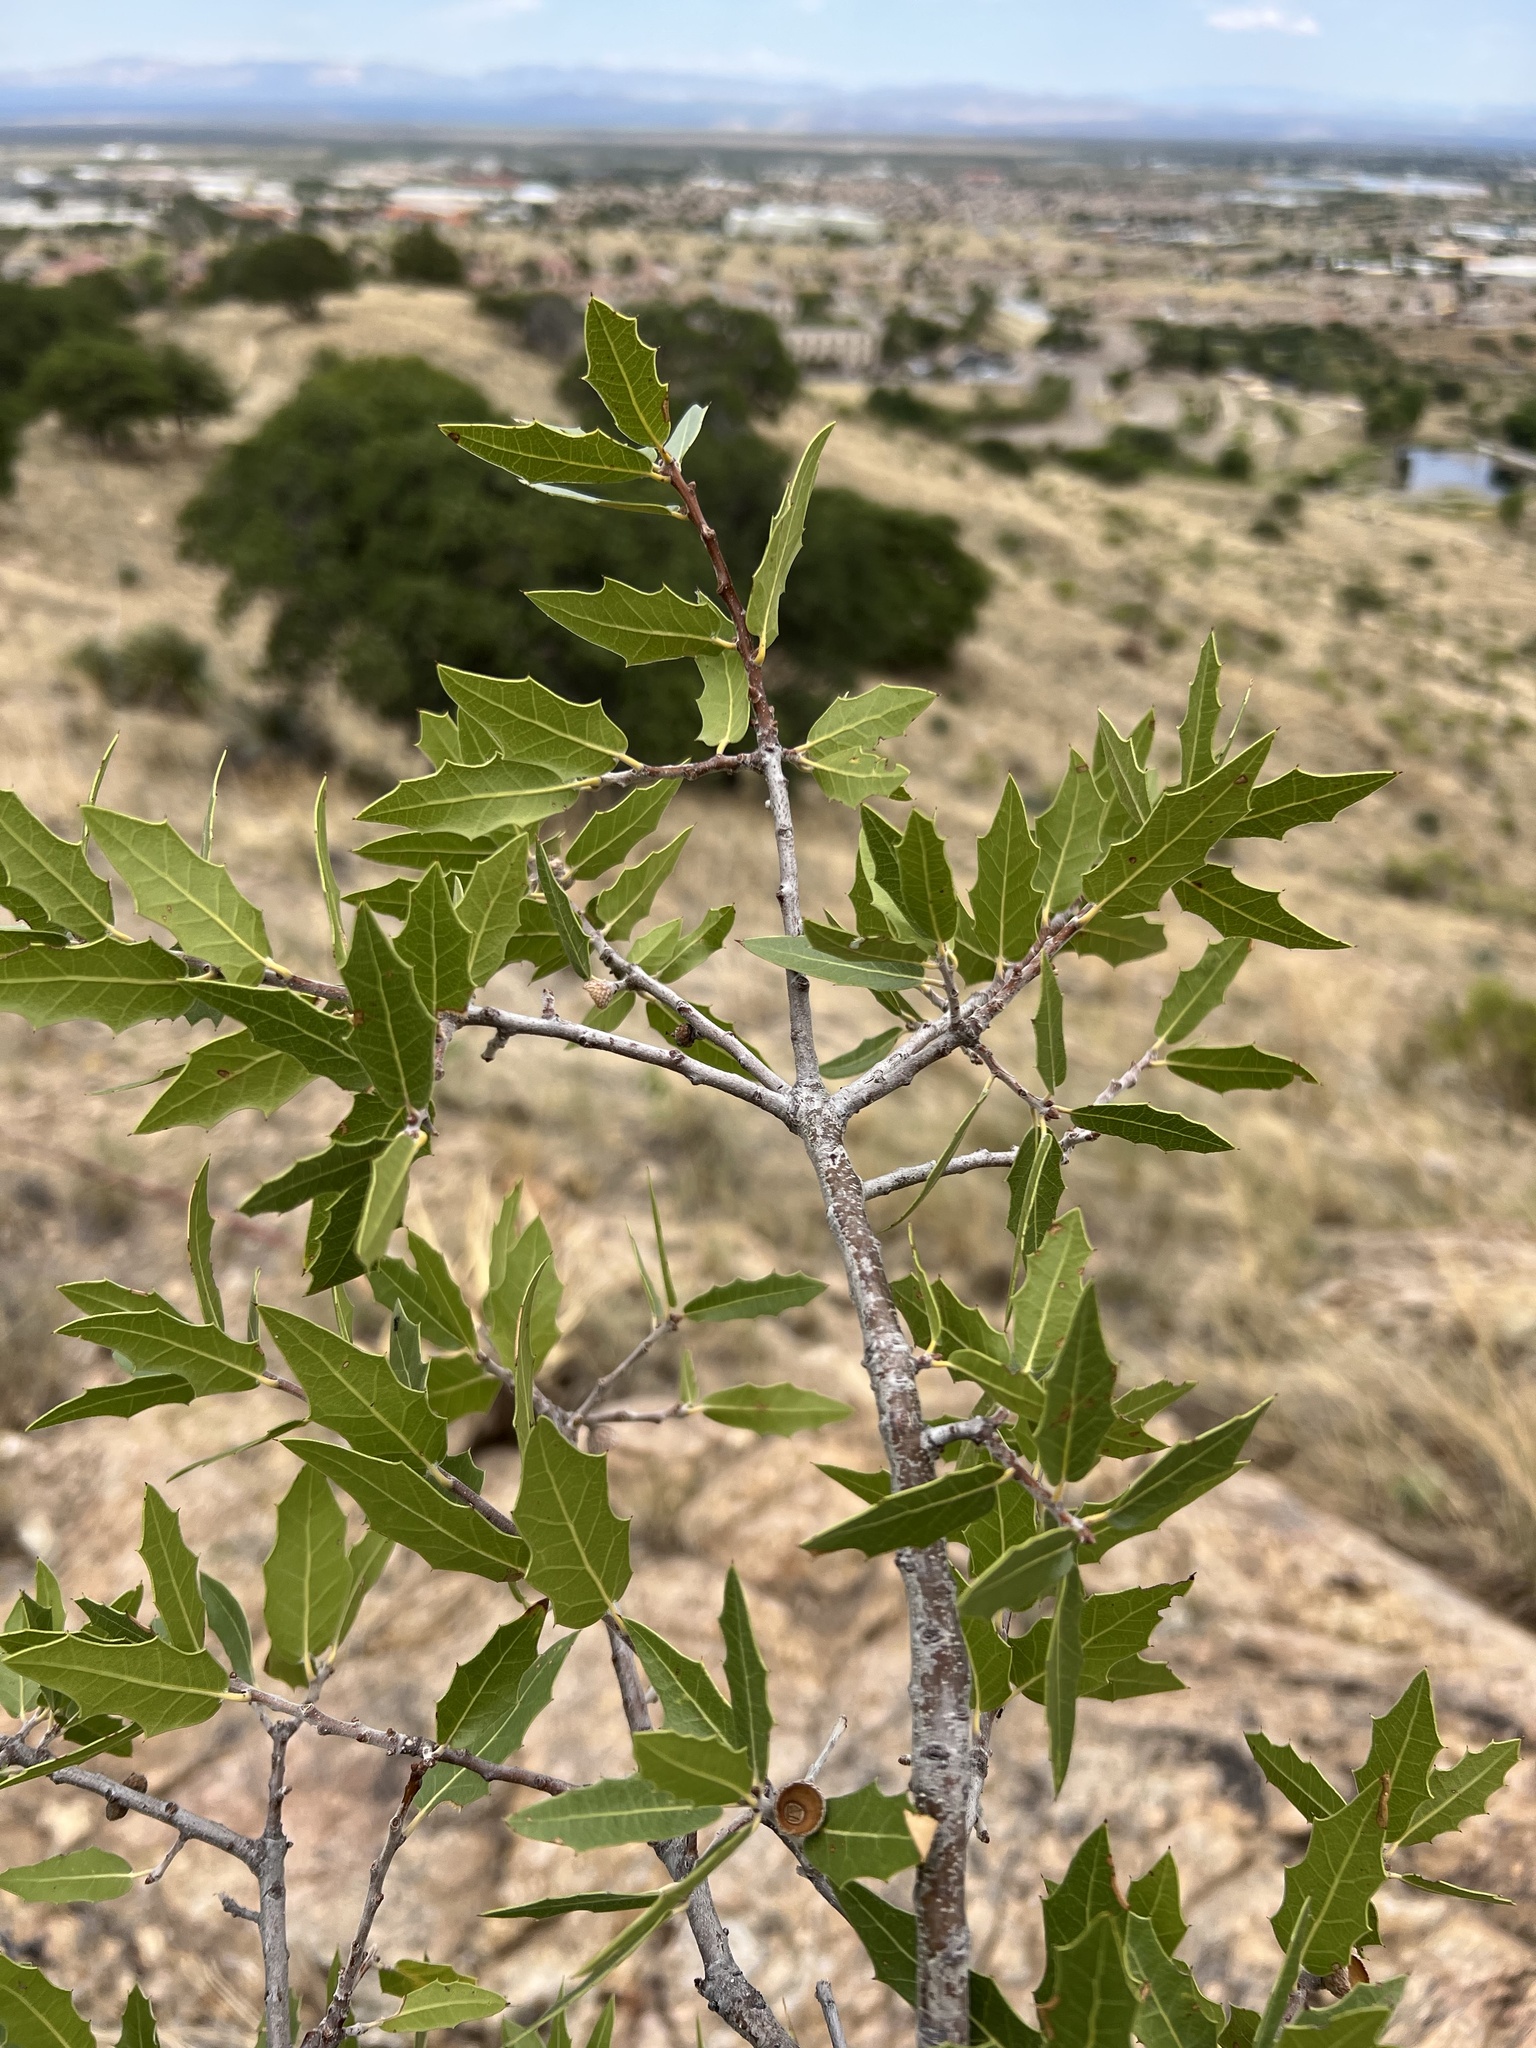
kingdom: Plantae
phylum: Tracheophyta
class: Magnoliopsida
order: Fagales
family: Fagaceae
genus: Quercus
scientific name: Quercus emoryi
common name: Emory oak
